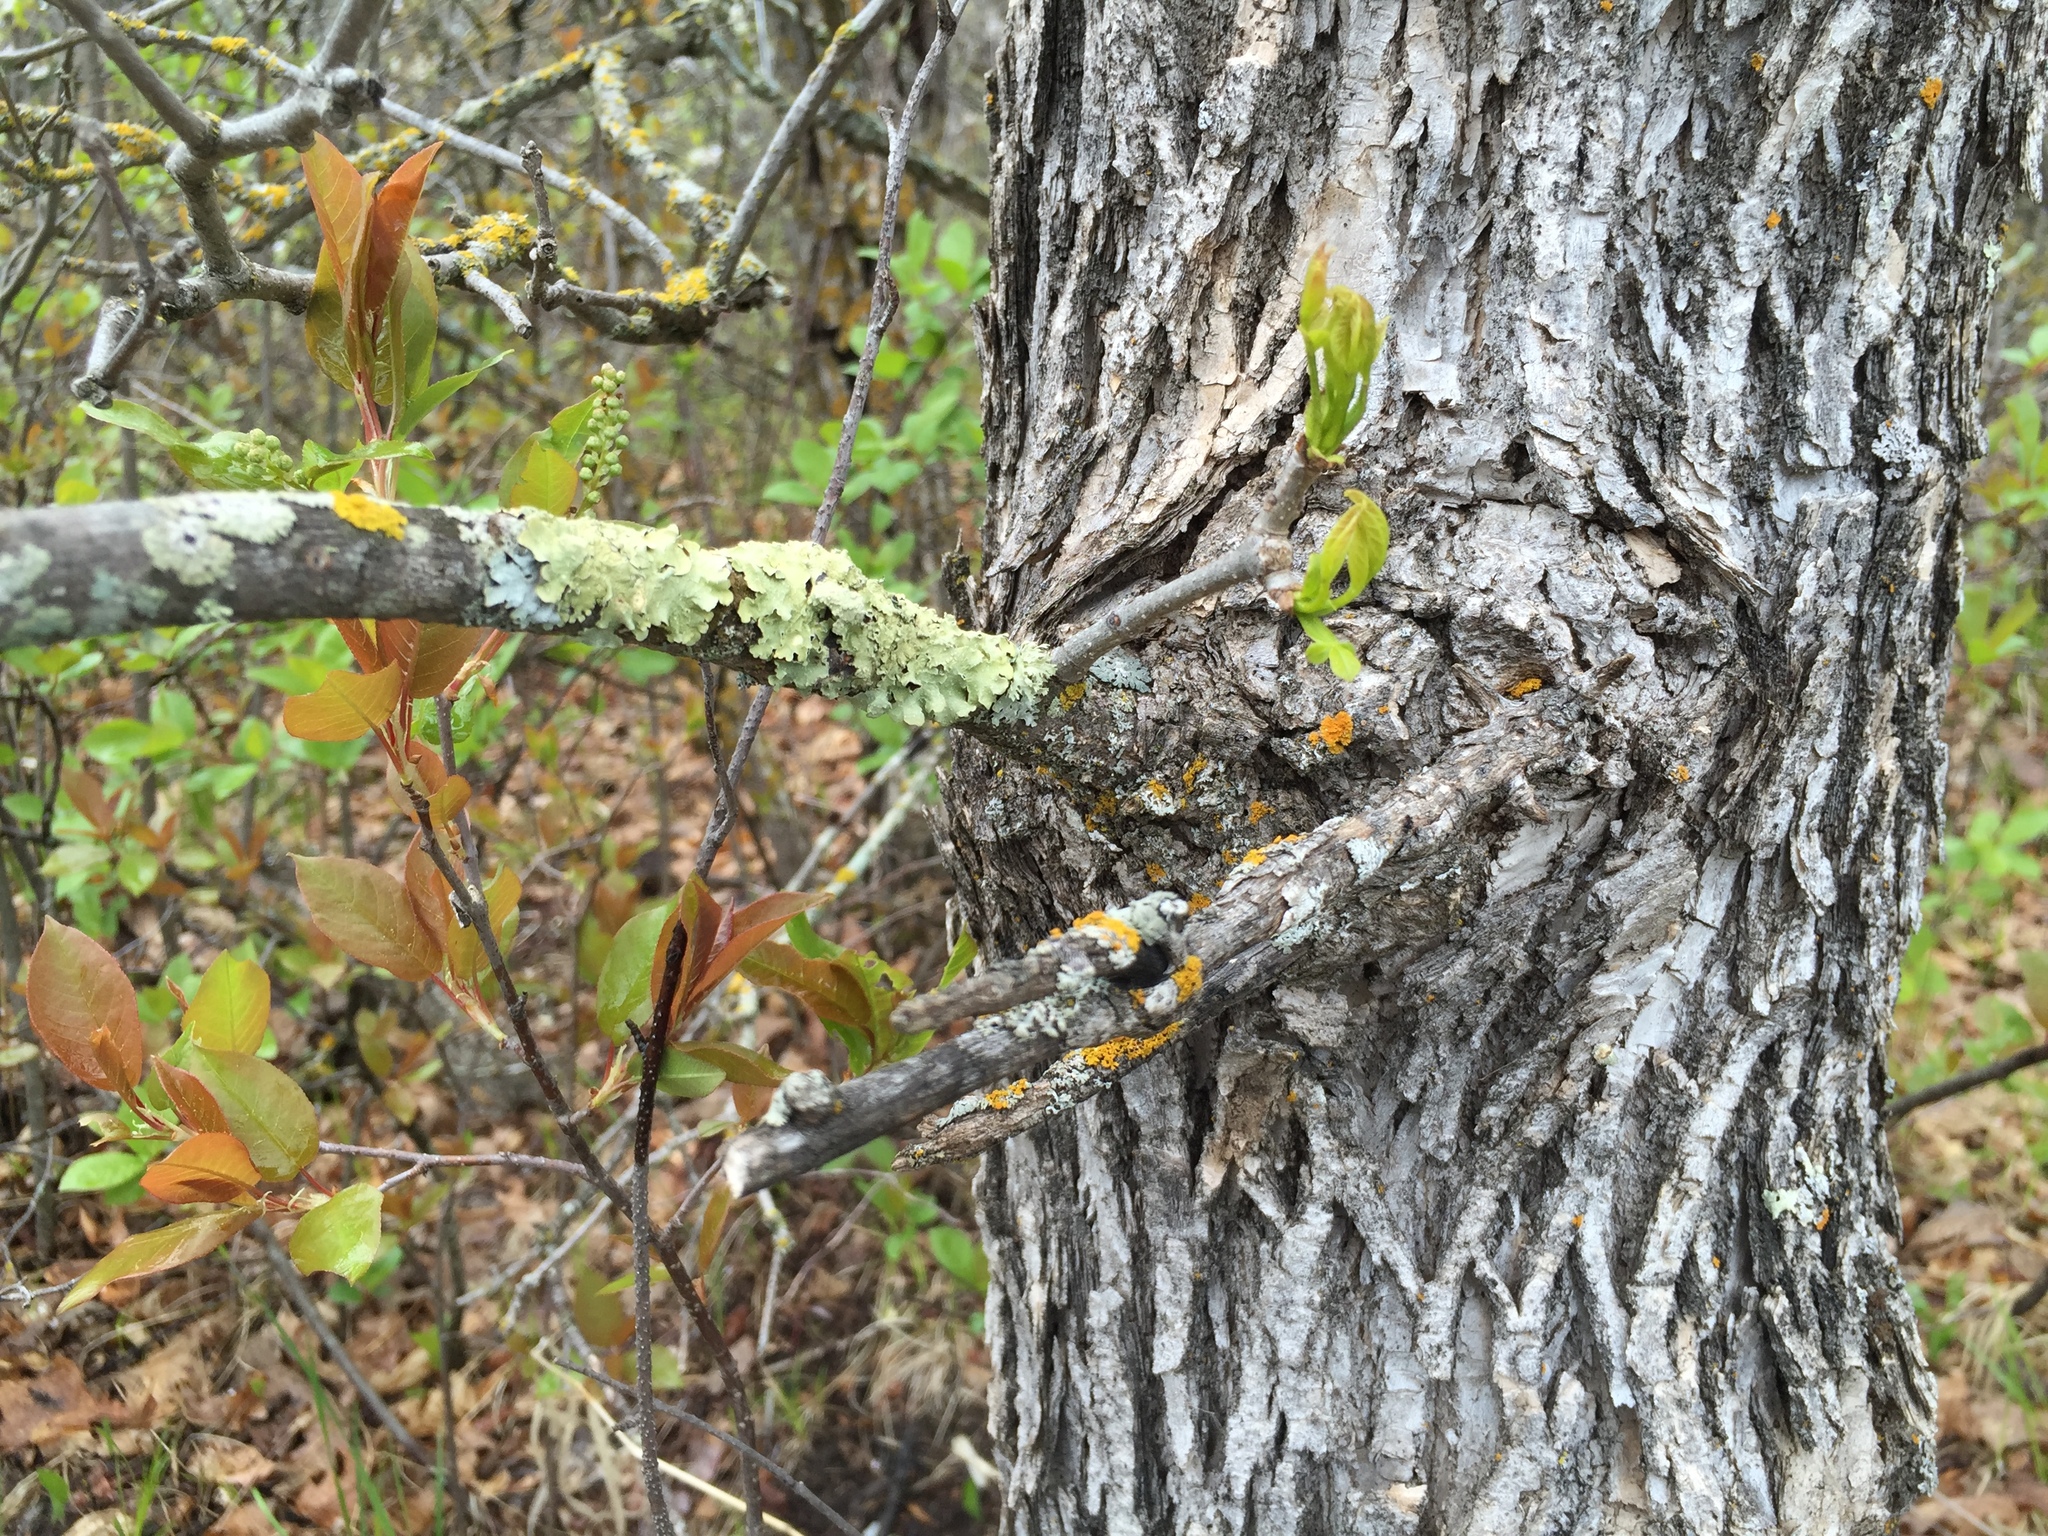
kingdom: Plantae
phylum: Tracheophyta
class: Magnoliopsida
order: Fagales
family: Fagaceae
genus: Quercus
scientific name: Quercus macrocarpa
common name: Bur oak
